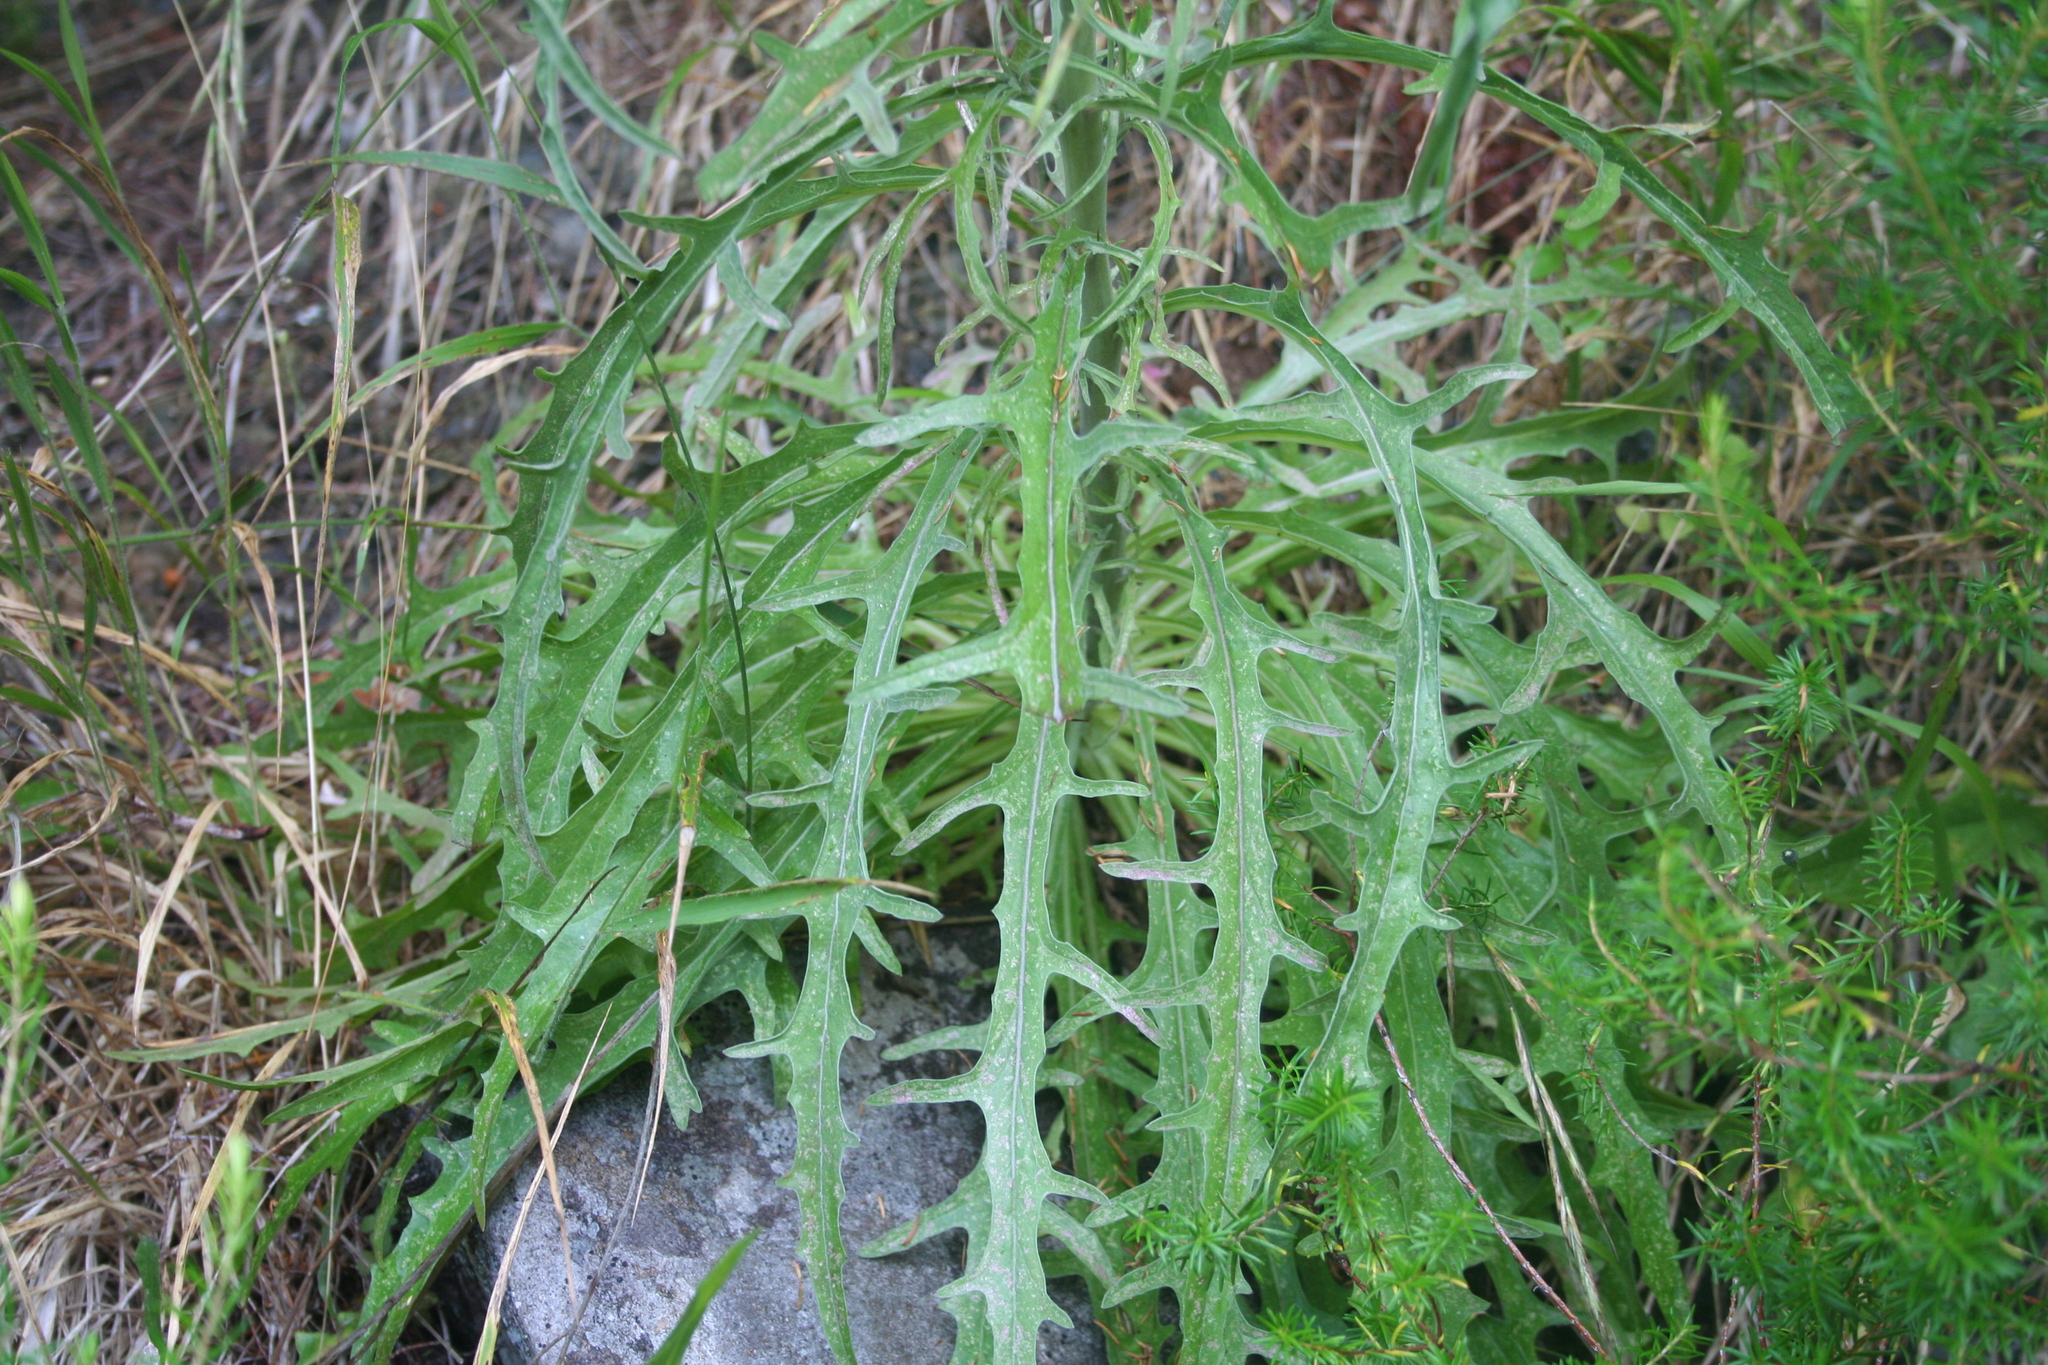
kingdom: Plantae
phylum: Tracheophyta
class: Magnoliopsida
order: Asterales
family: Asteraceae
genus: Andryala
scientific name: Andryala glandulosa
